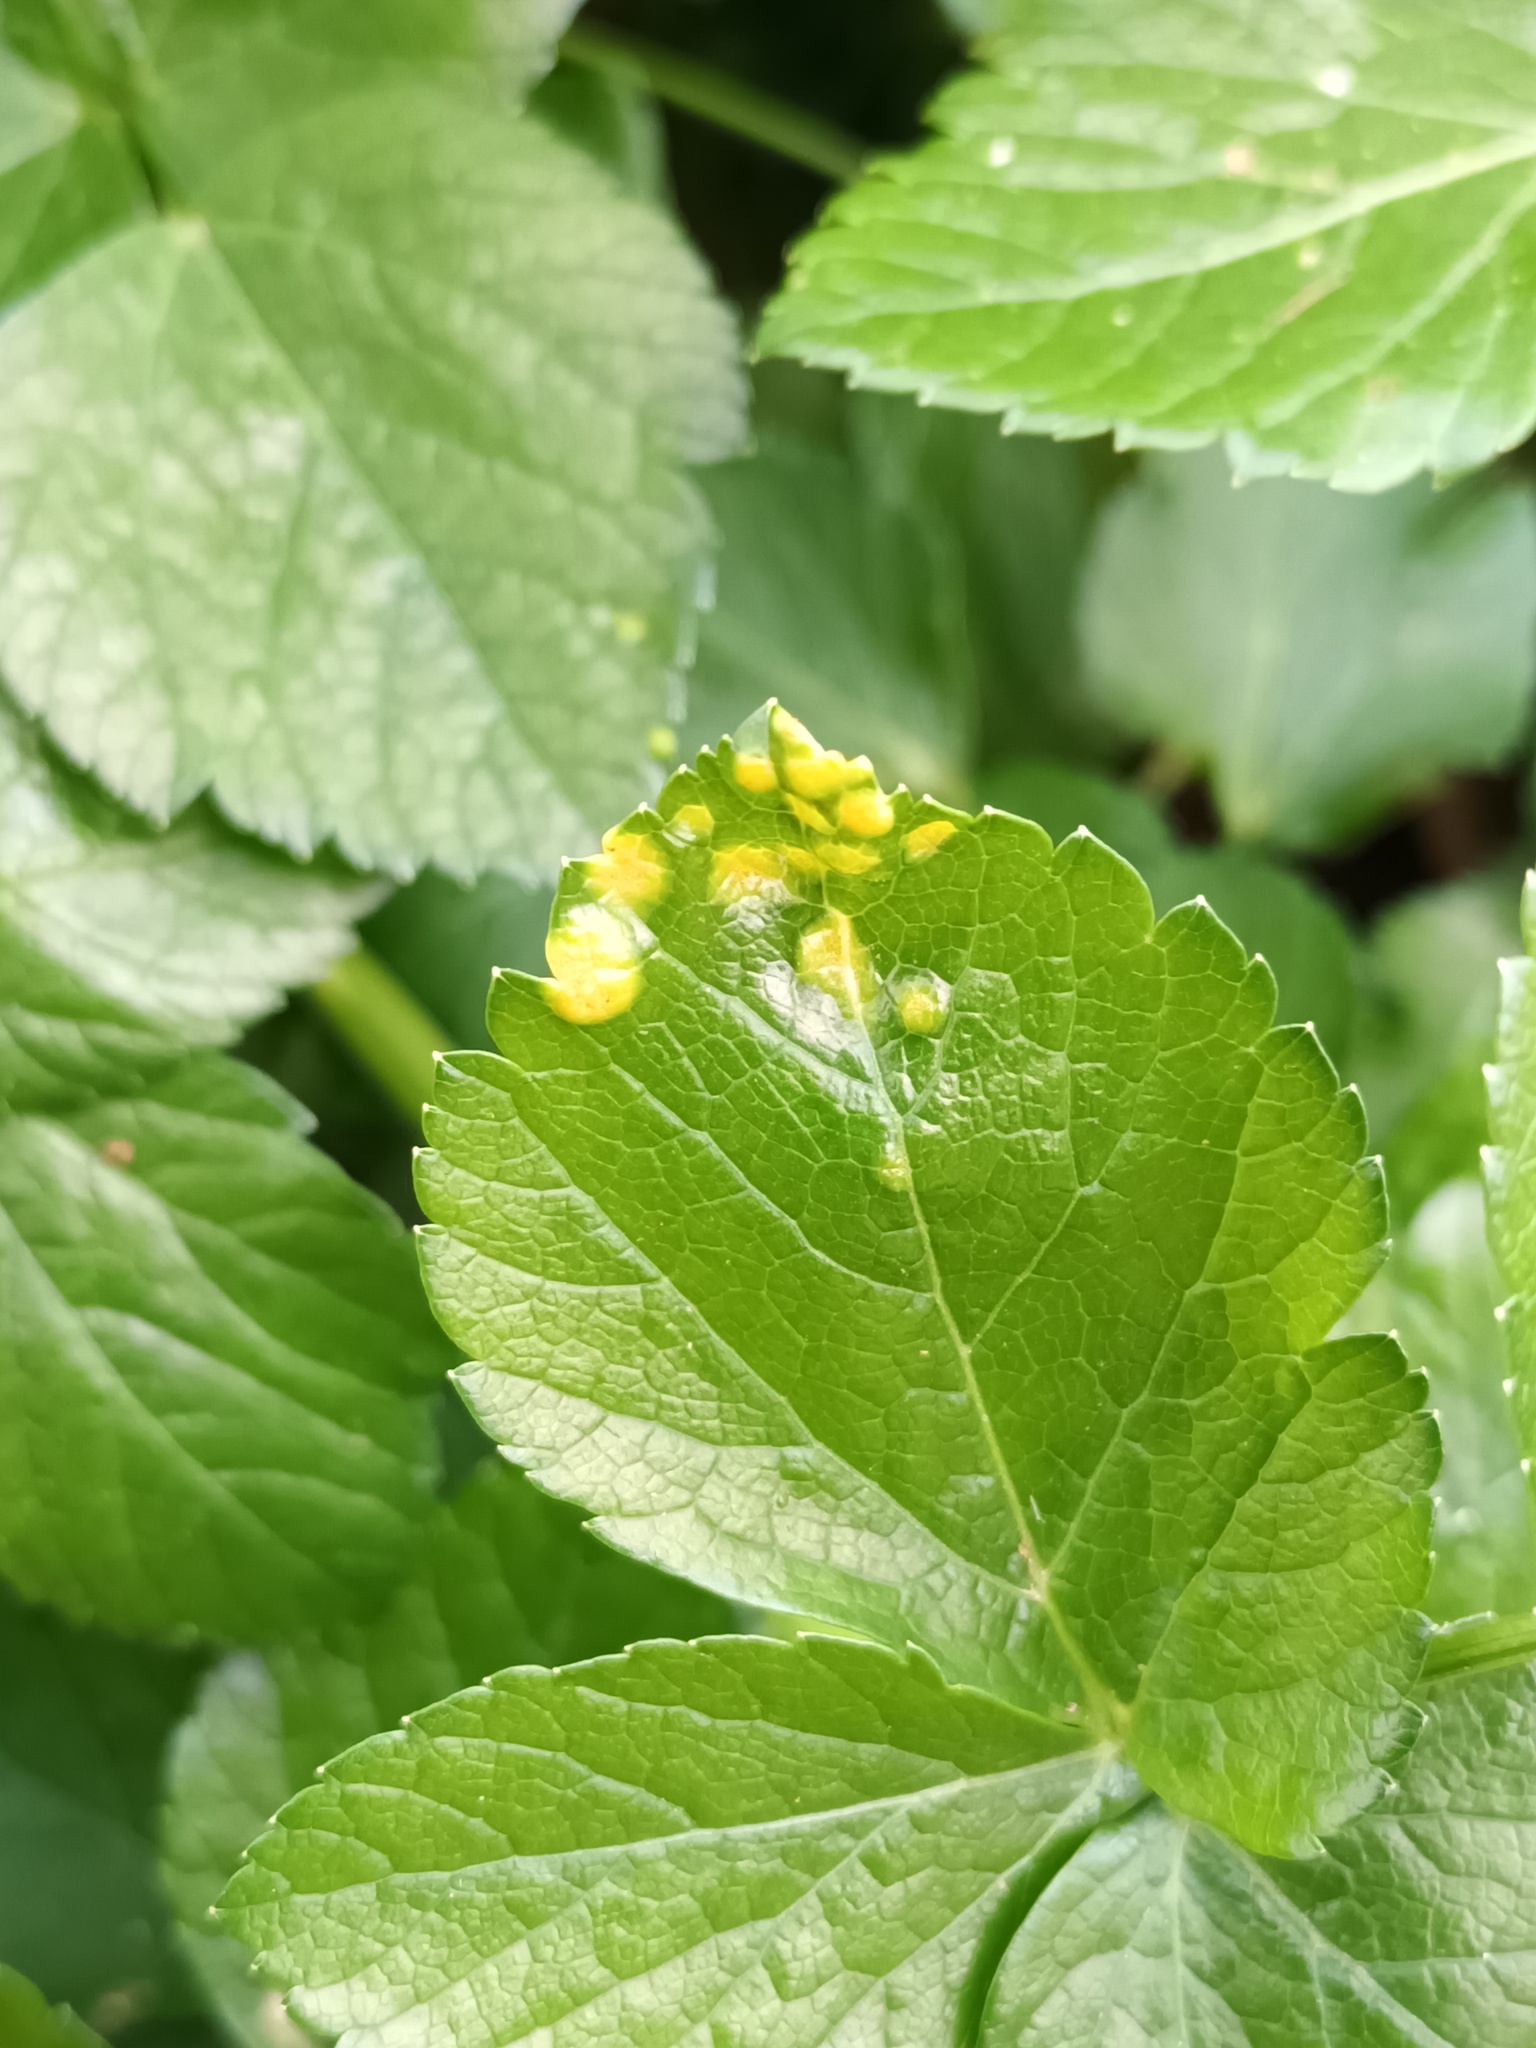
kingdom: Fungi
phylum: Basidiomycota
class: Pucciniomycetes
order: Pucciniales
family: Pucciniaceae
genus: Puccinia
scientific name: Puccinia smyrnii
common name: Alexanders rust
